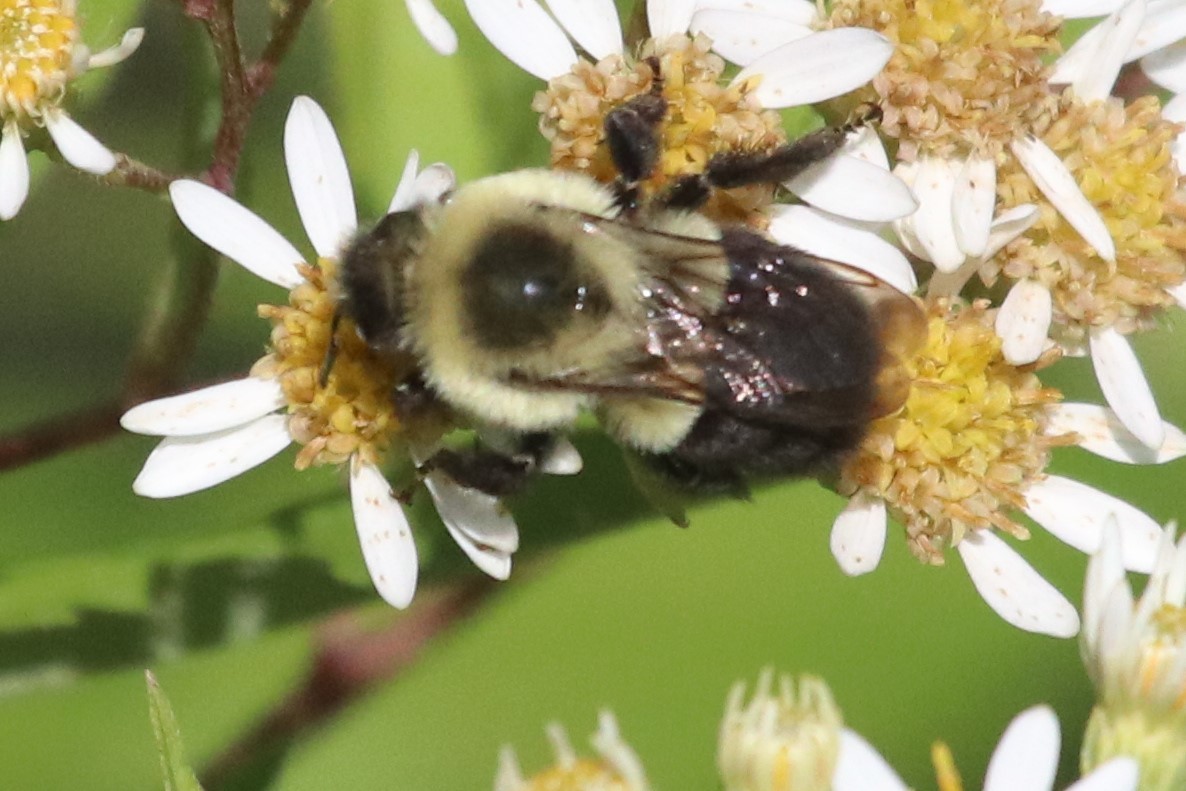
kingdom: Animalia
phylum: Arthropoda
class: Insecta
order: Hymenoptera
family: Apidae
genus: Bombus
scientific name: Bombus impatiens
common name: Common eastern bumble bee
